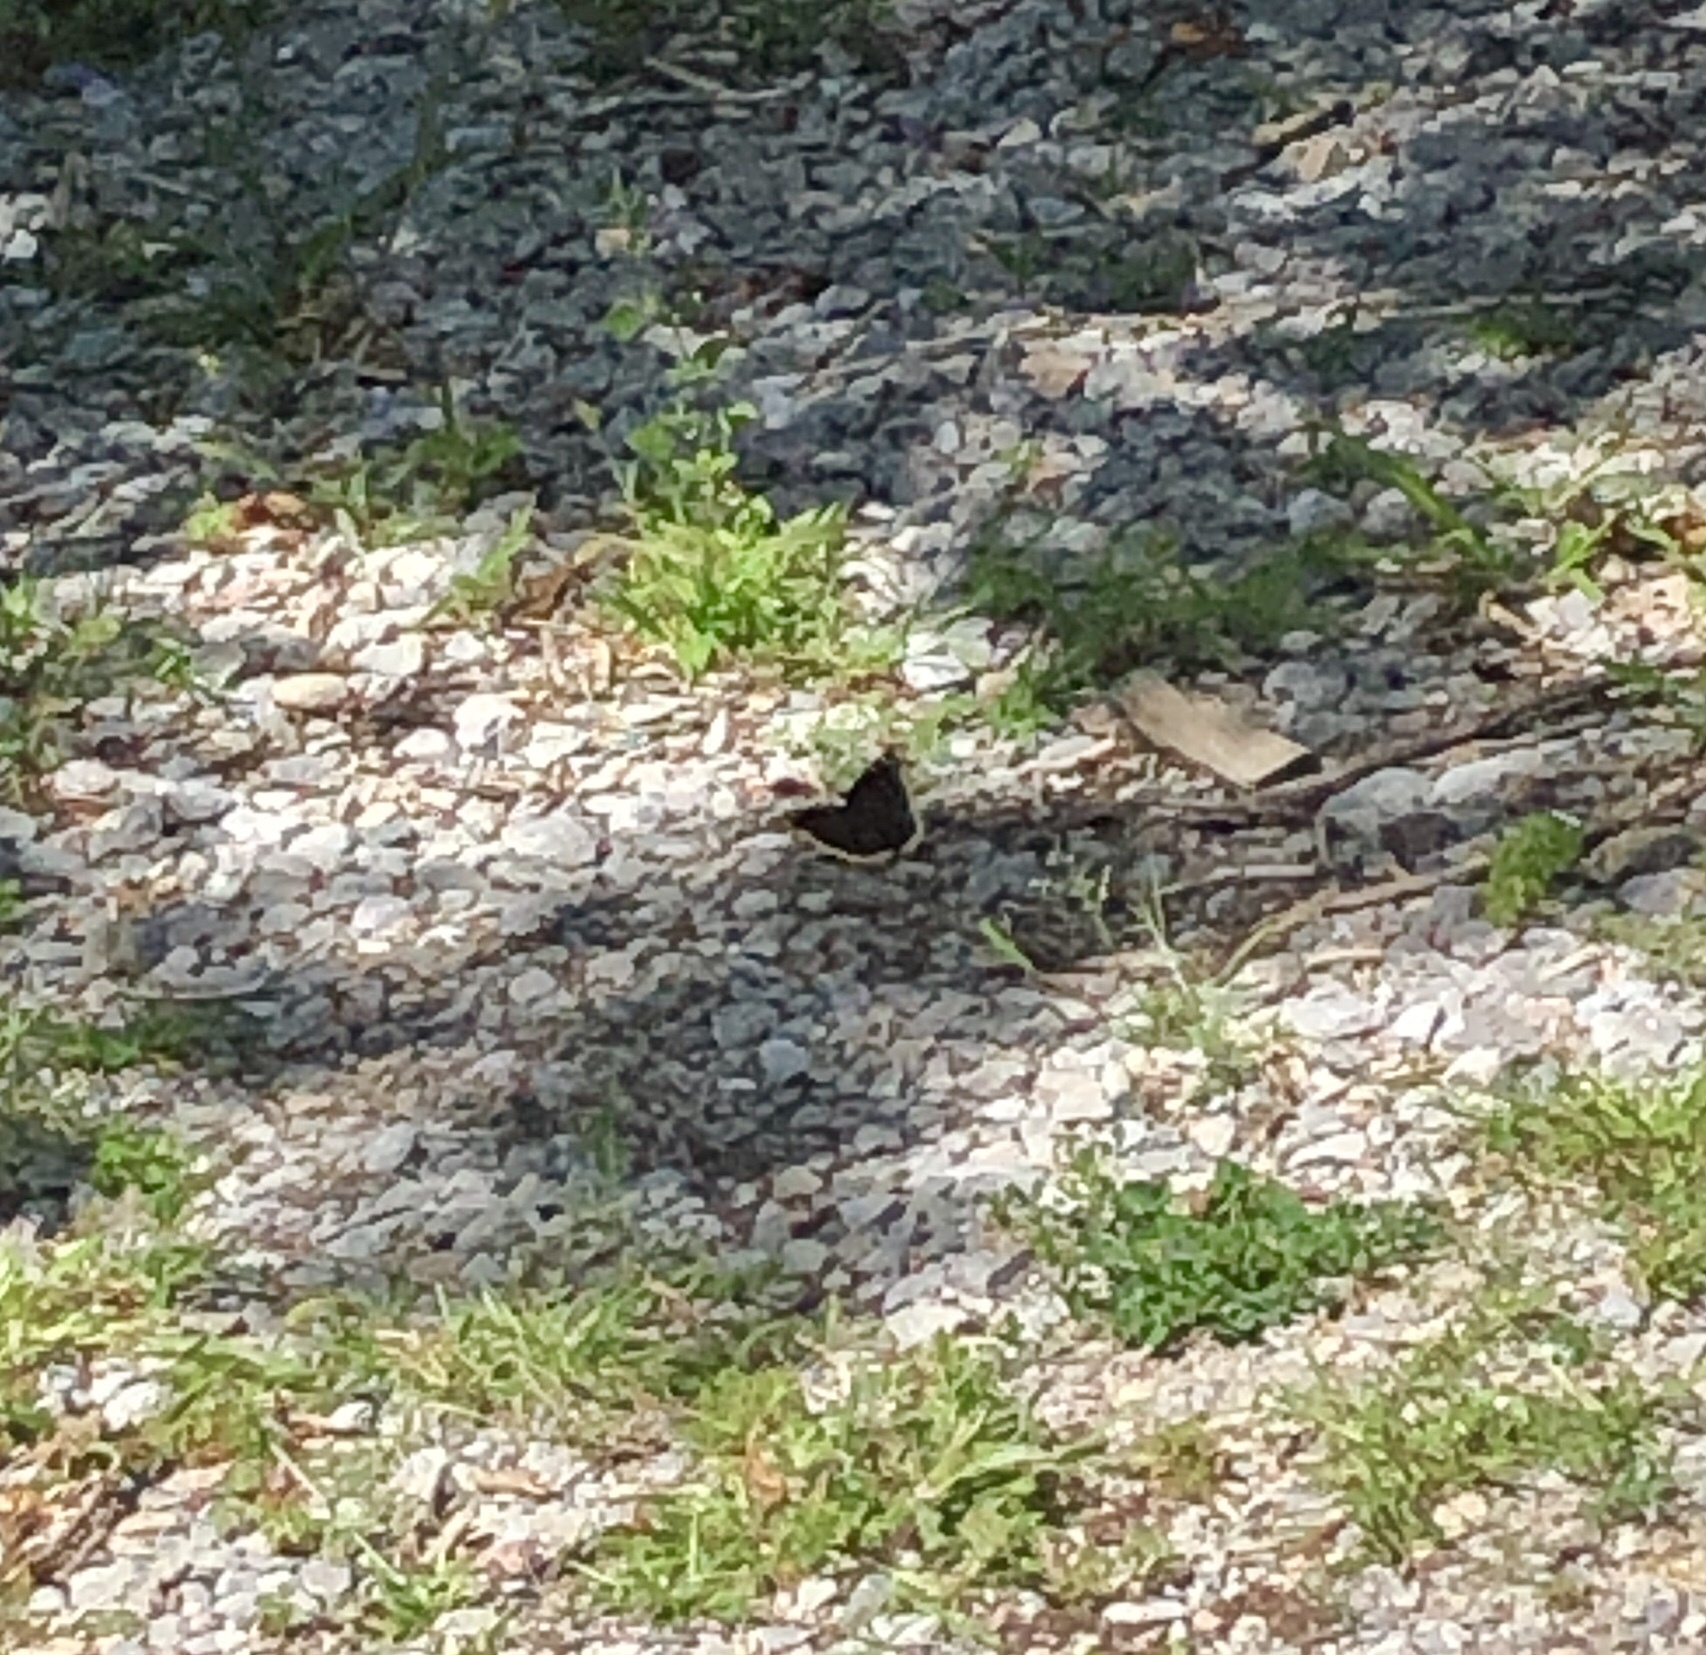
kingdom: Animalia
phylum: Arthropoda
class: Insecta
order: Lepidoptera
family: Nymphalidae
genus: Nymphalis
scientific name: Nymphalis antiopa
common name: Camberwell beauty
